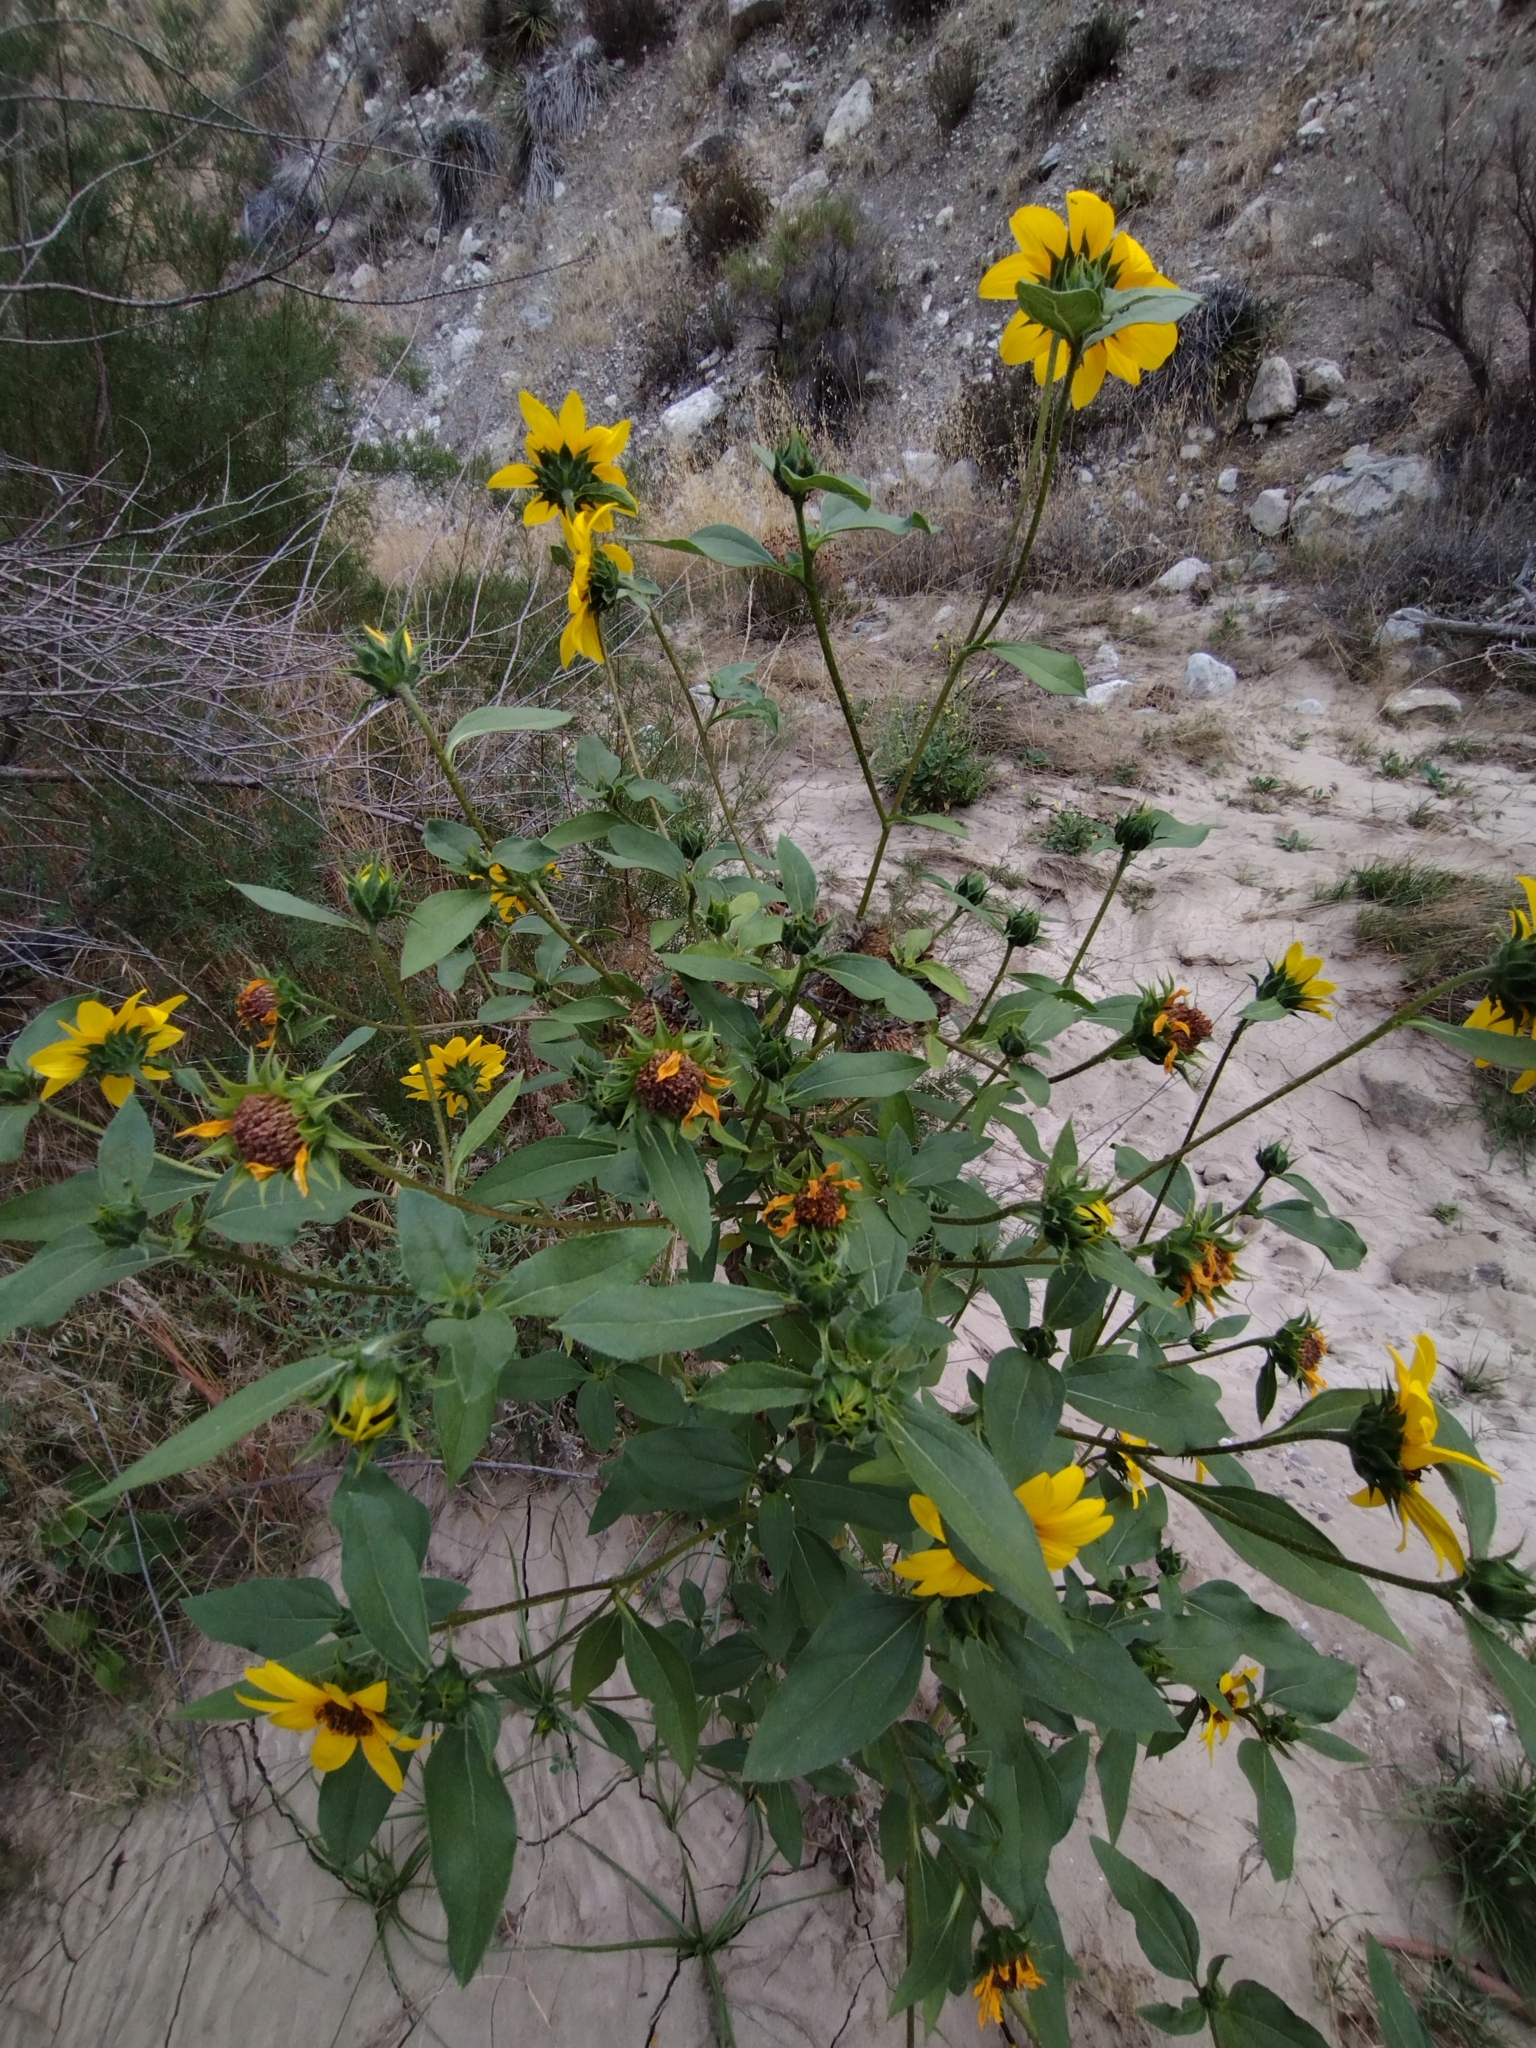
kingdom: Plantae
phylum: Tracheophyta
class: Magnoliopsida
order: Asterales
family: Asteraceae
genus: Helianthus
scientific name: Helianthus annuus
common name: Sunflower
